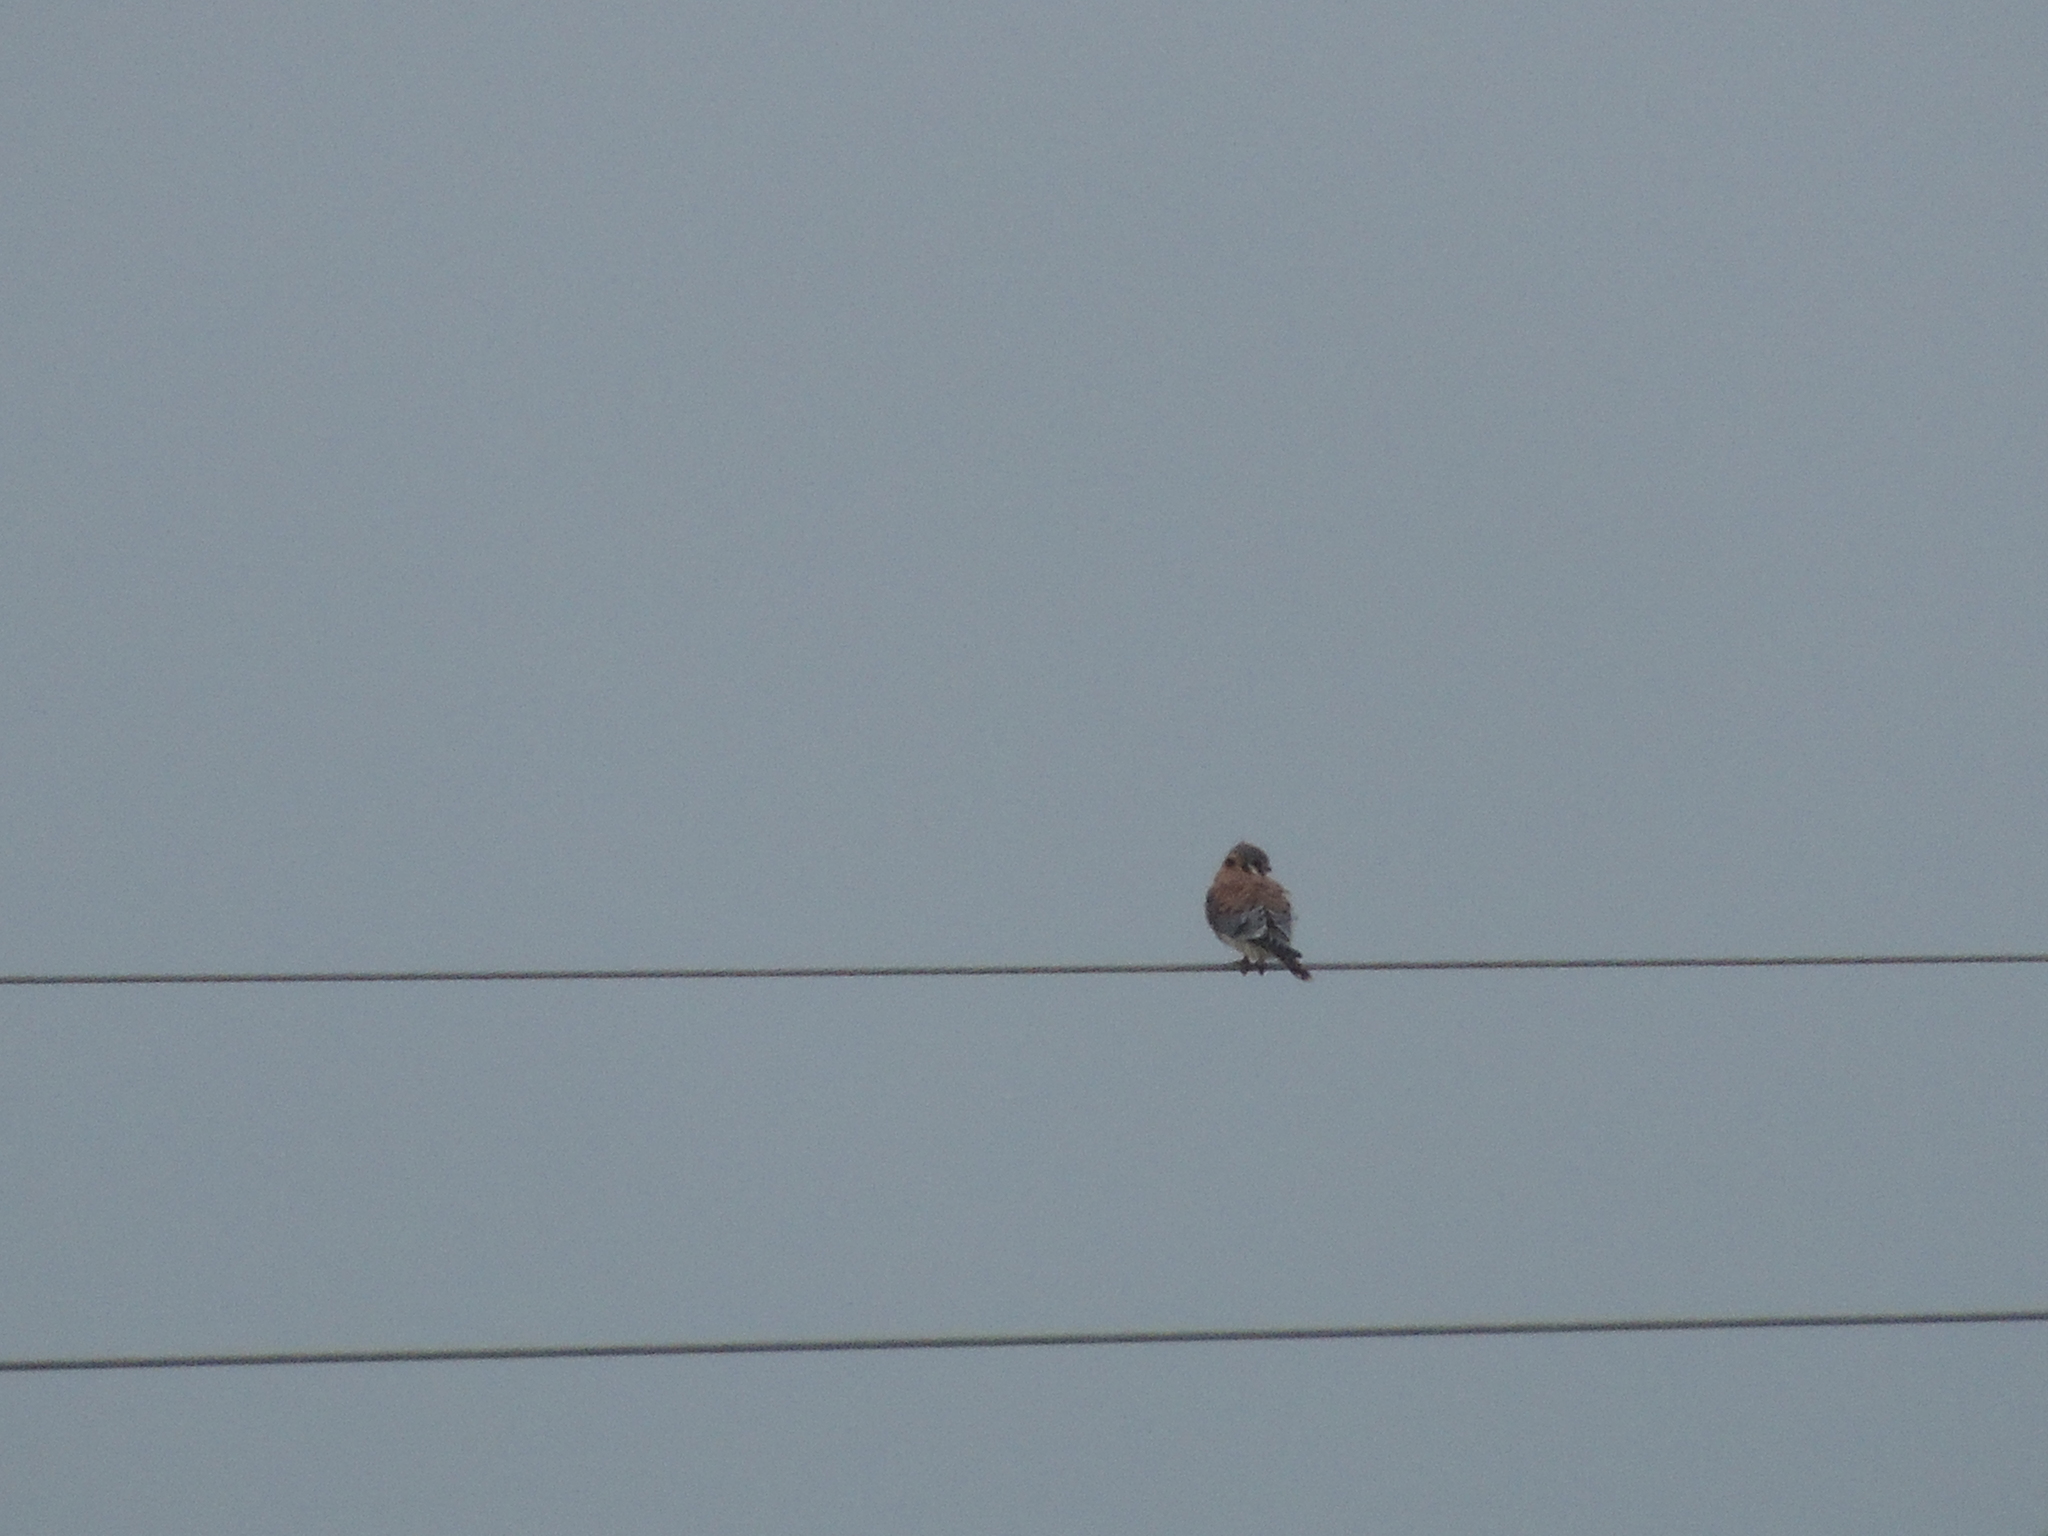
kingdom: Animalia
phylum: Chordata
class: Aves
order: Falconiformes
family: Falconidae
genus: Falco
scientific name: Falco sparverius
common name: American kestrel
